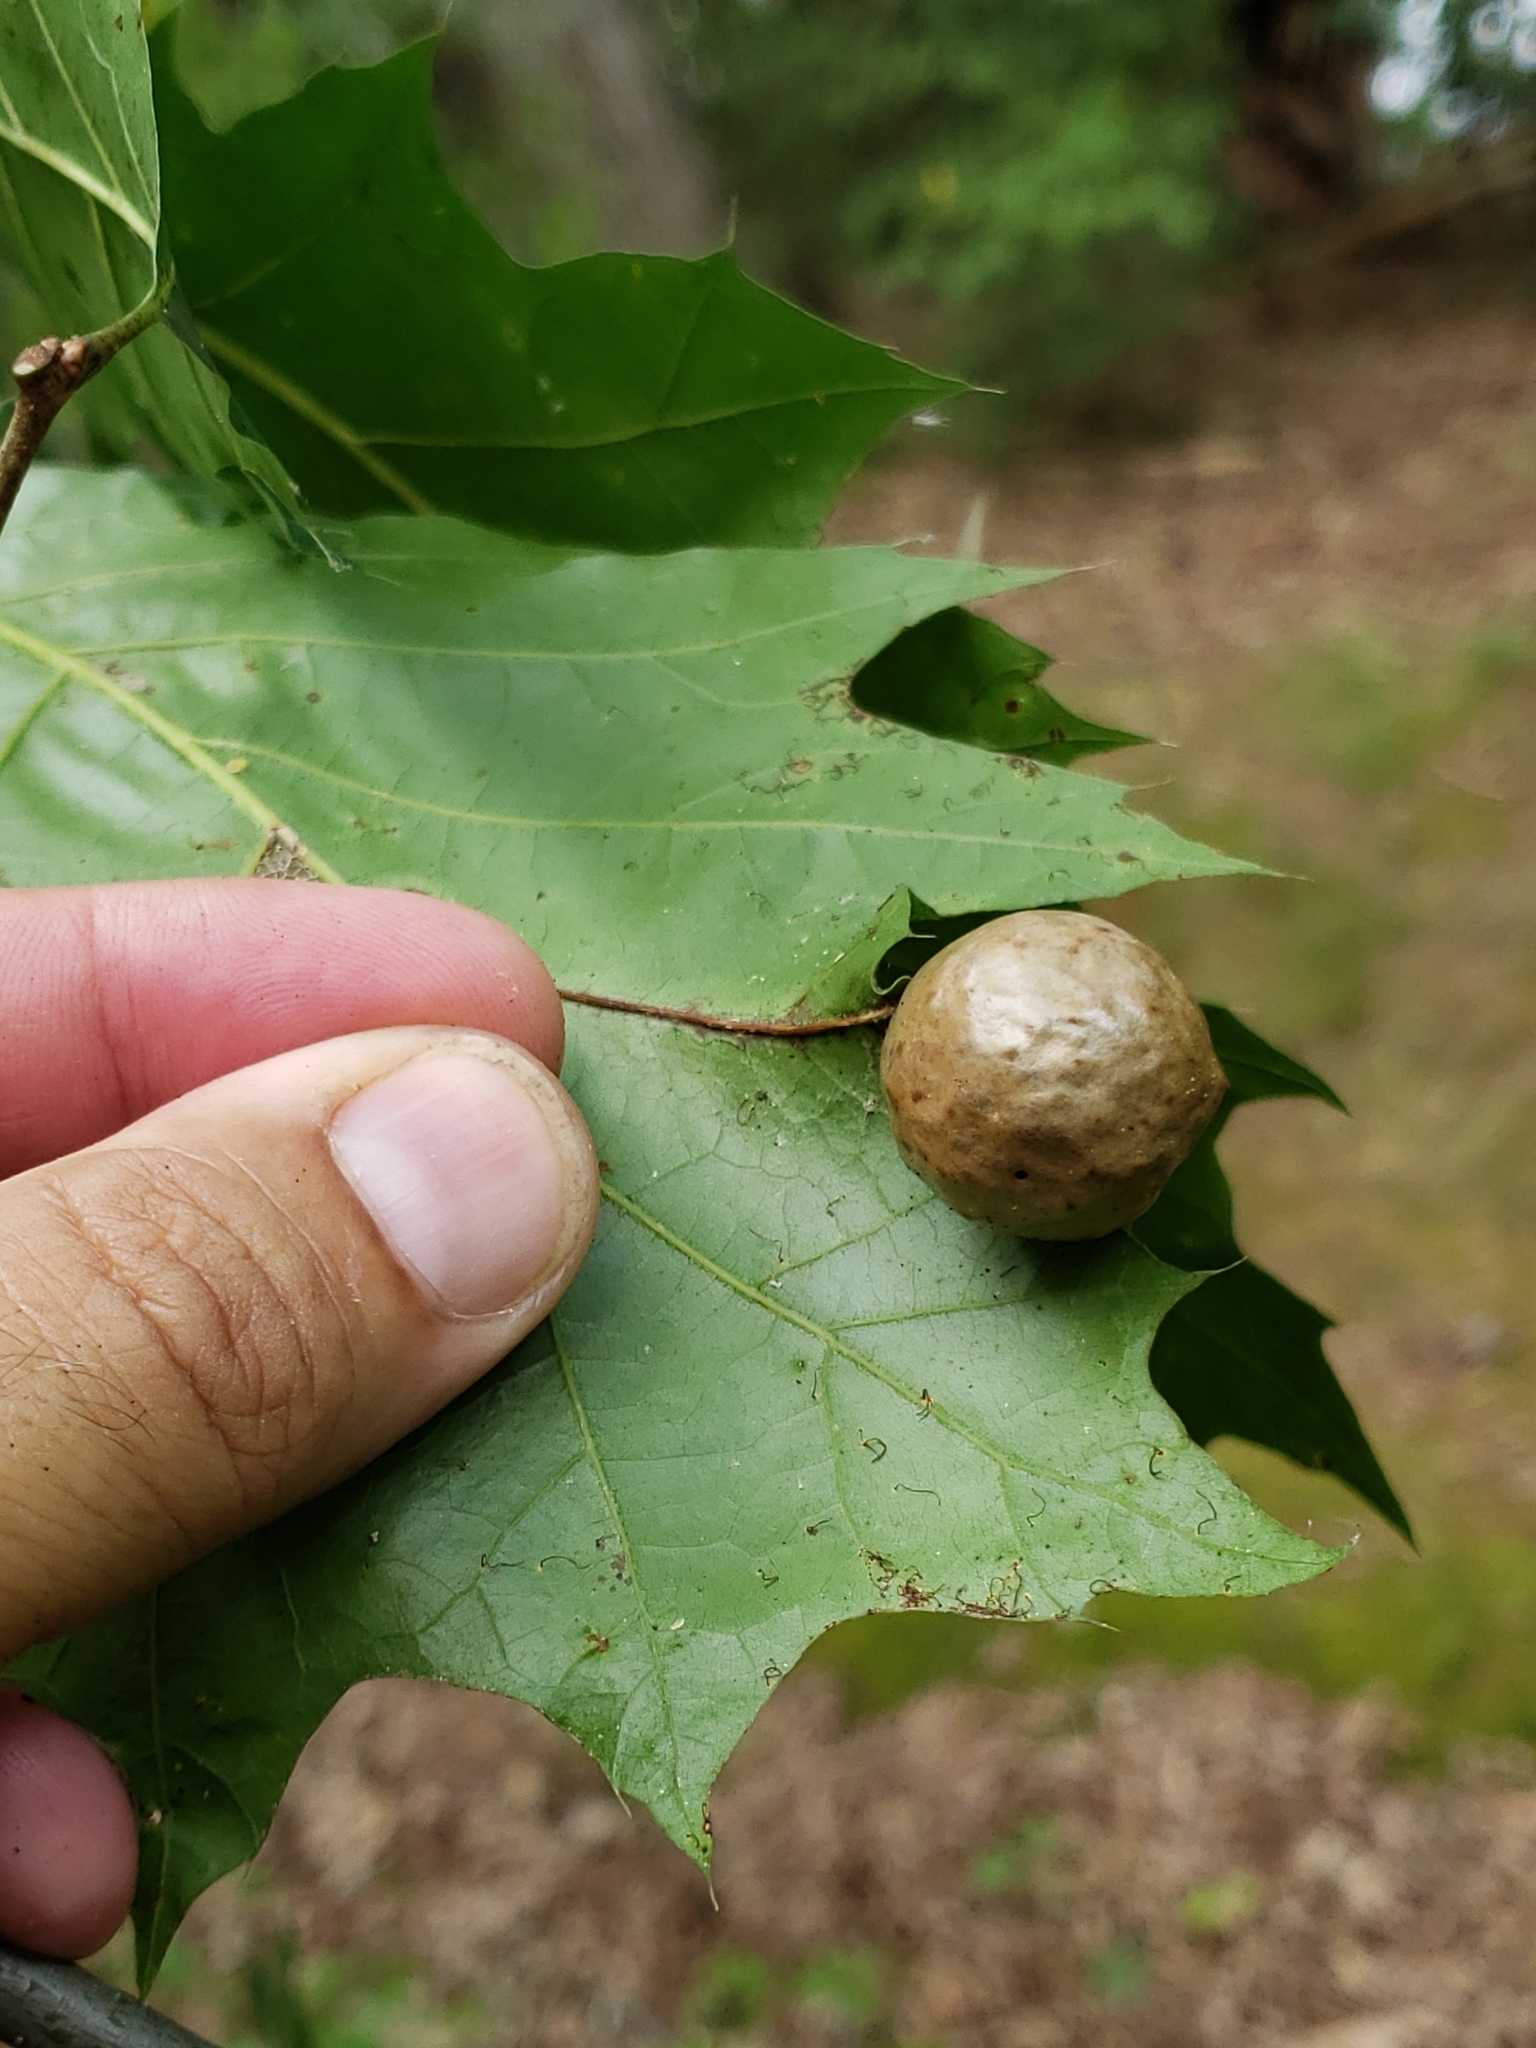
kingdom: Animalia
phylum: Arthropoda
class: Insecta
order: Hymenoptera
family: Cynipidae
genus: Amphibolips
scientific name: Amphibolips
